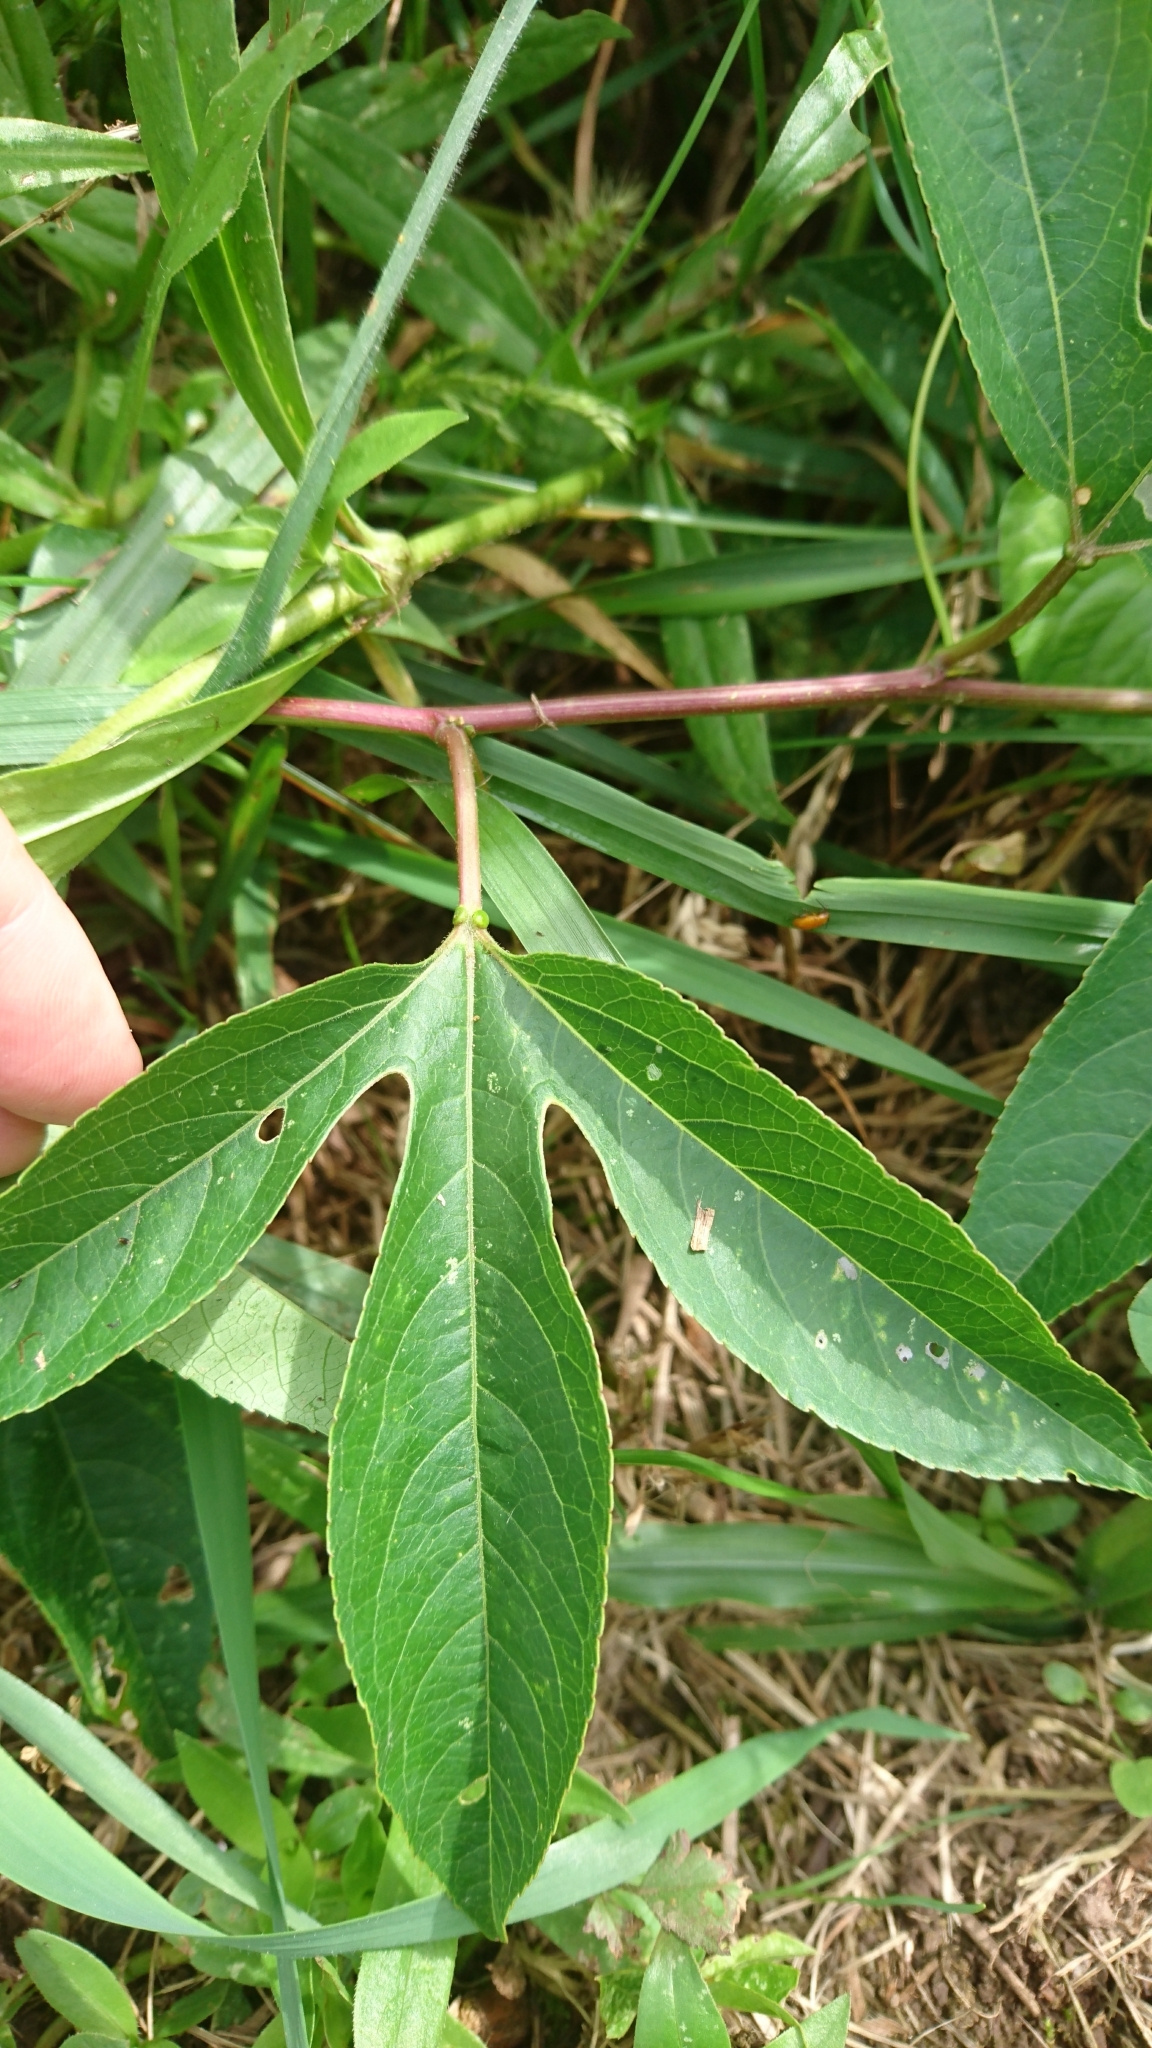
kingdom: Plantae
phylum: Tracheophyta
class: Magnoliopsida
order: Malpighiales
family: Passifloraceae
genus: Passiflora
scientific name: Passiflora incarnata
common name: Apricot-vine
